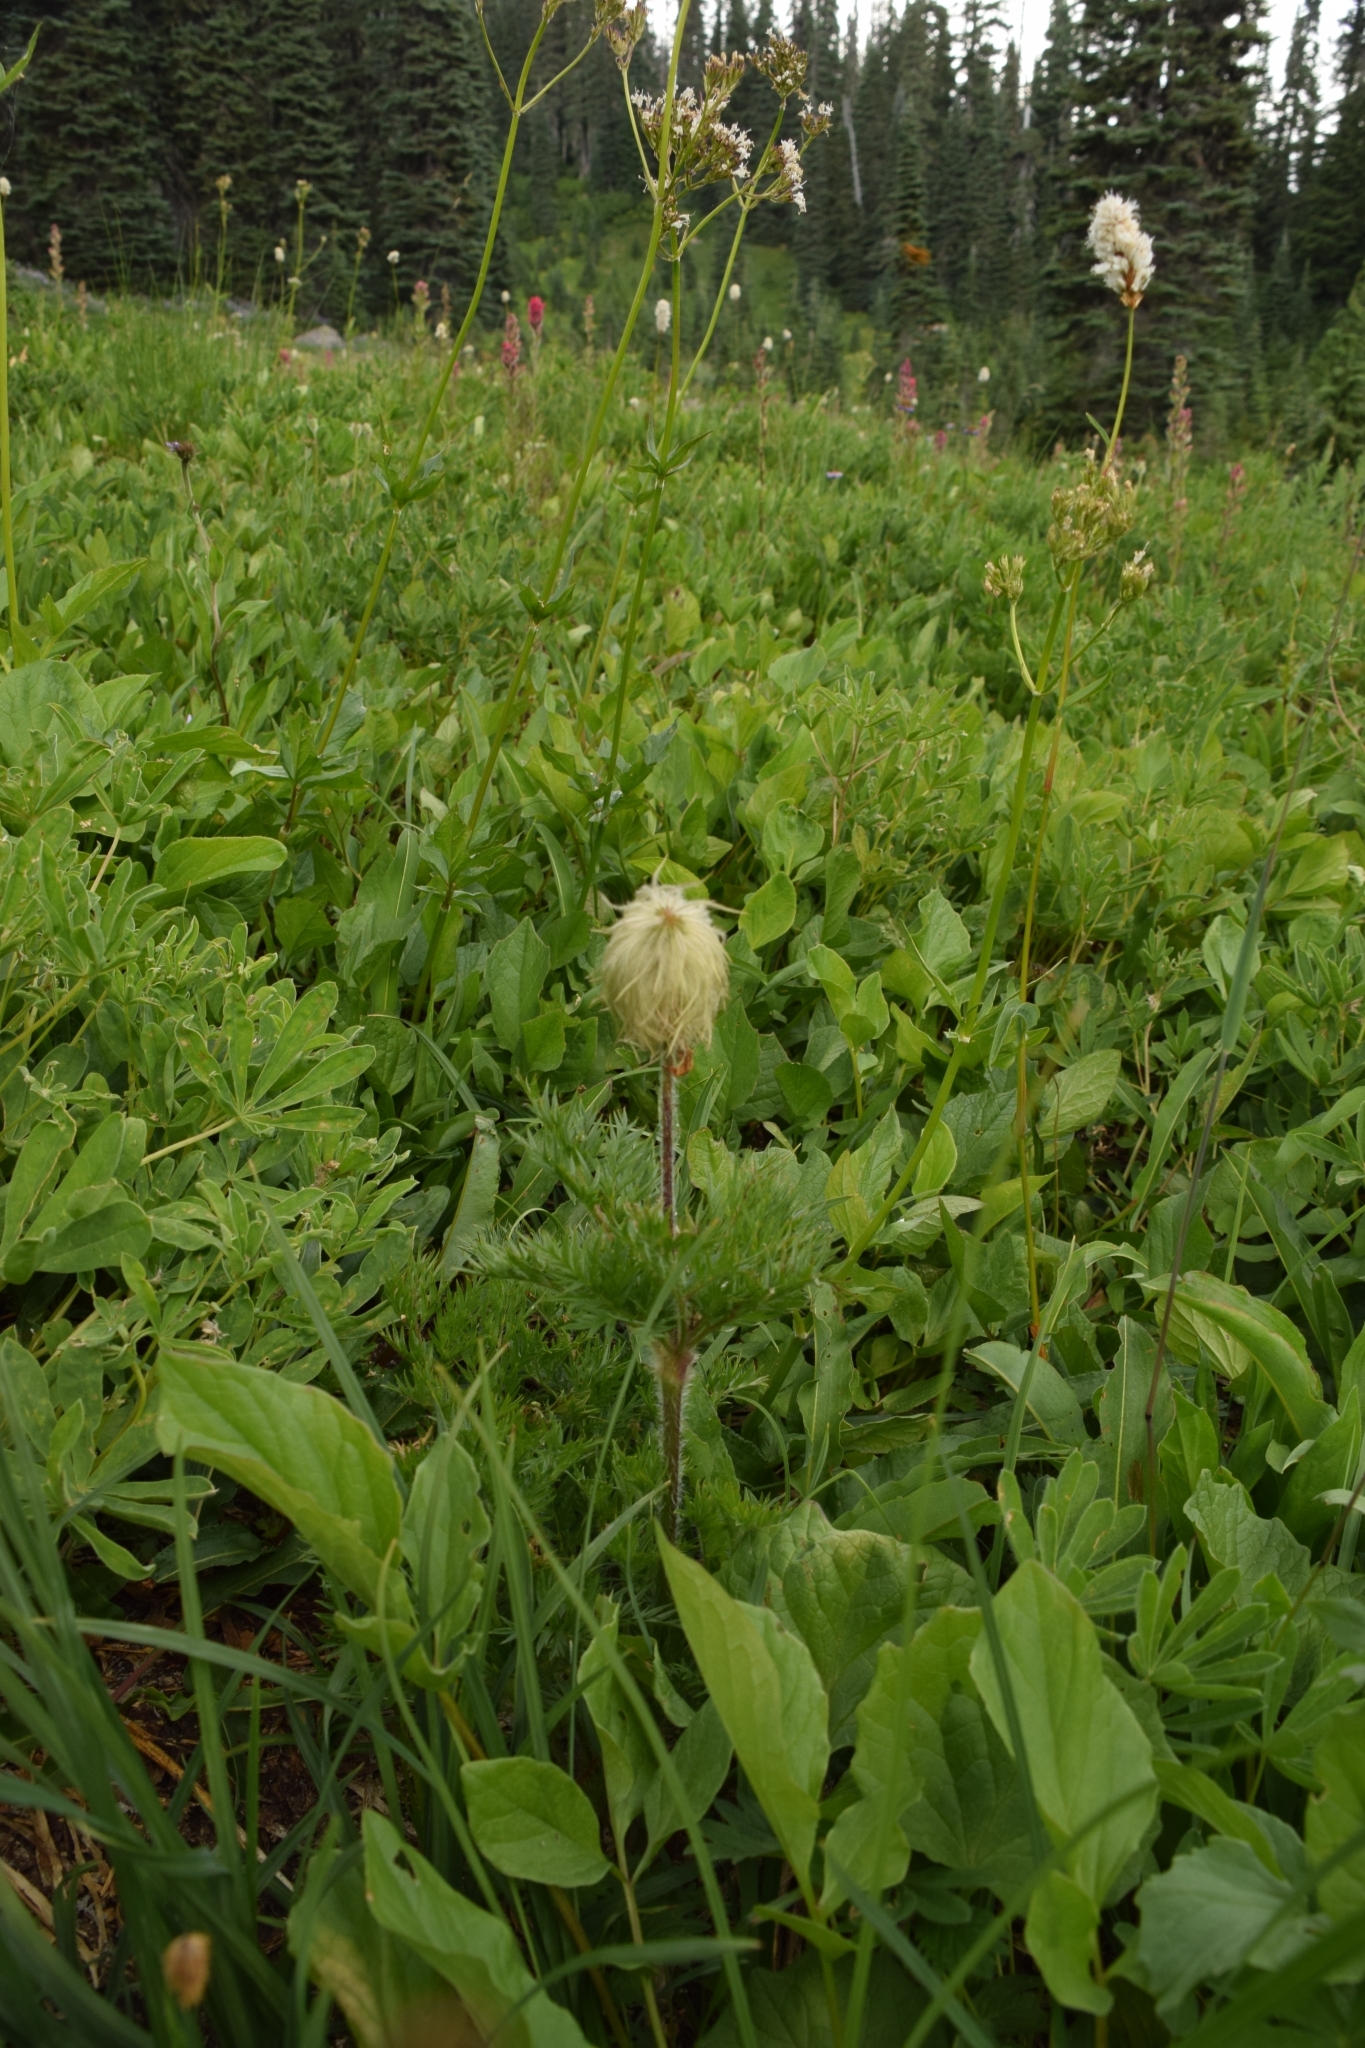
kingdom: Plantae
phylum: Tracheophyta
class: Magnoliopsida
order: Ranunculales
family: Ranunculaceae
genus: Pulsatilla
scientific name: Pulsatilla occidentalis
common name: Mountain pasqueflower
